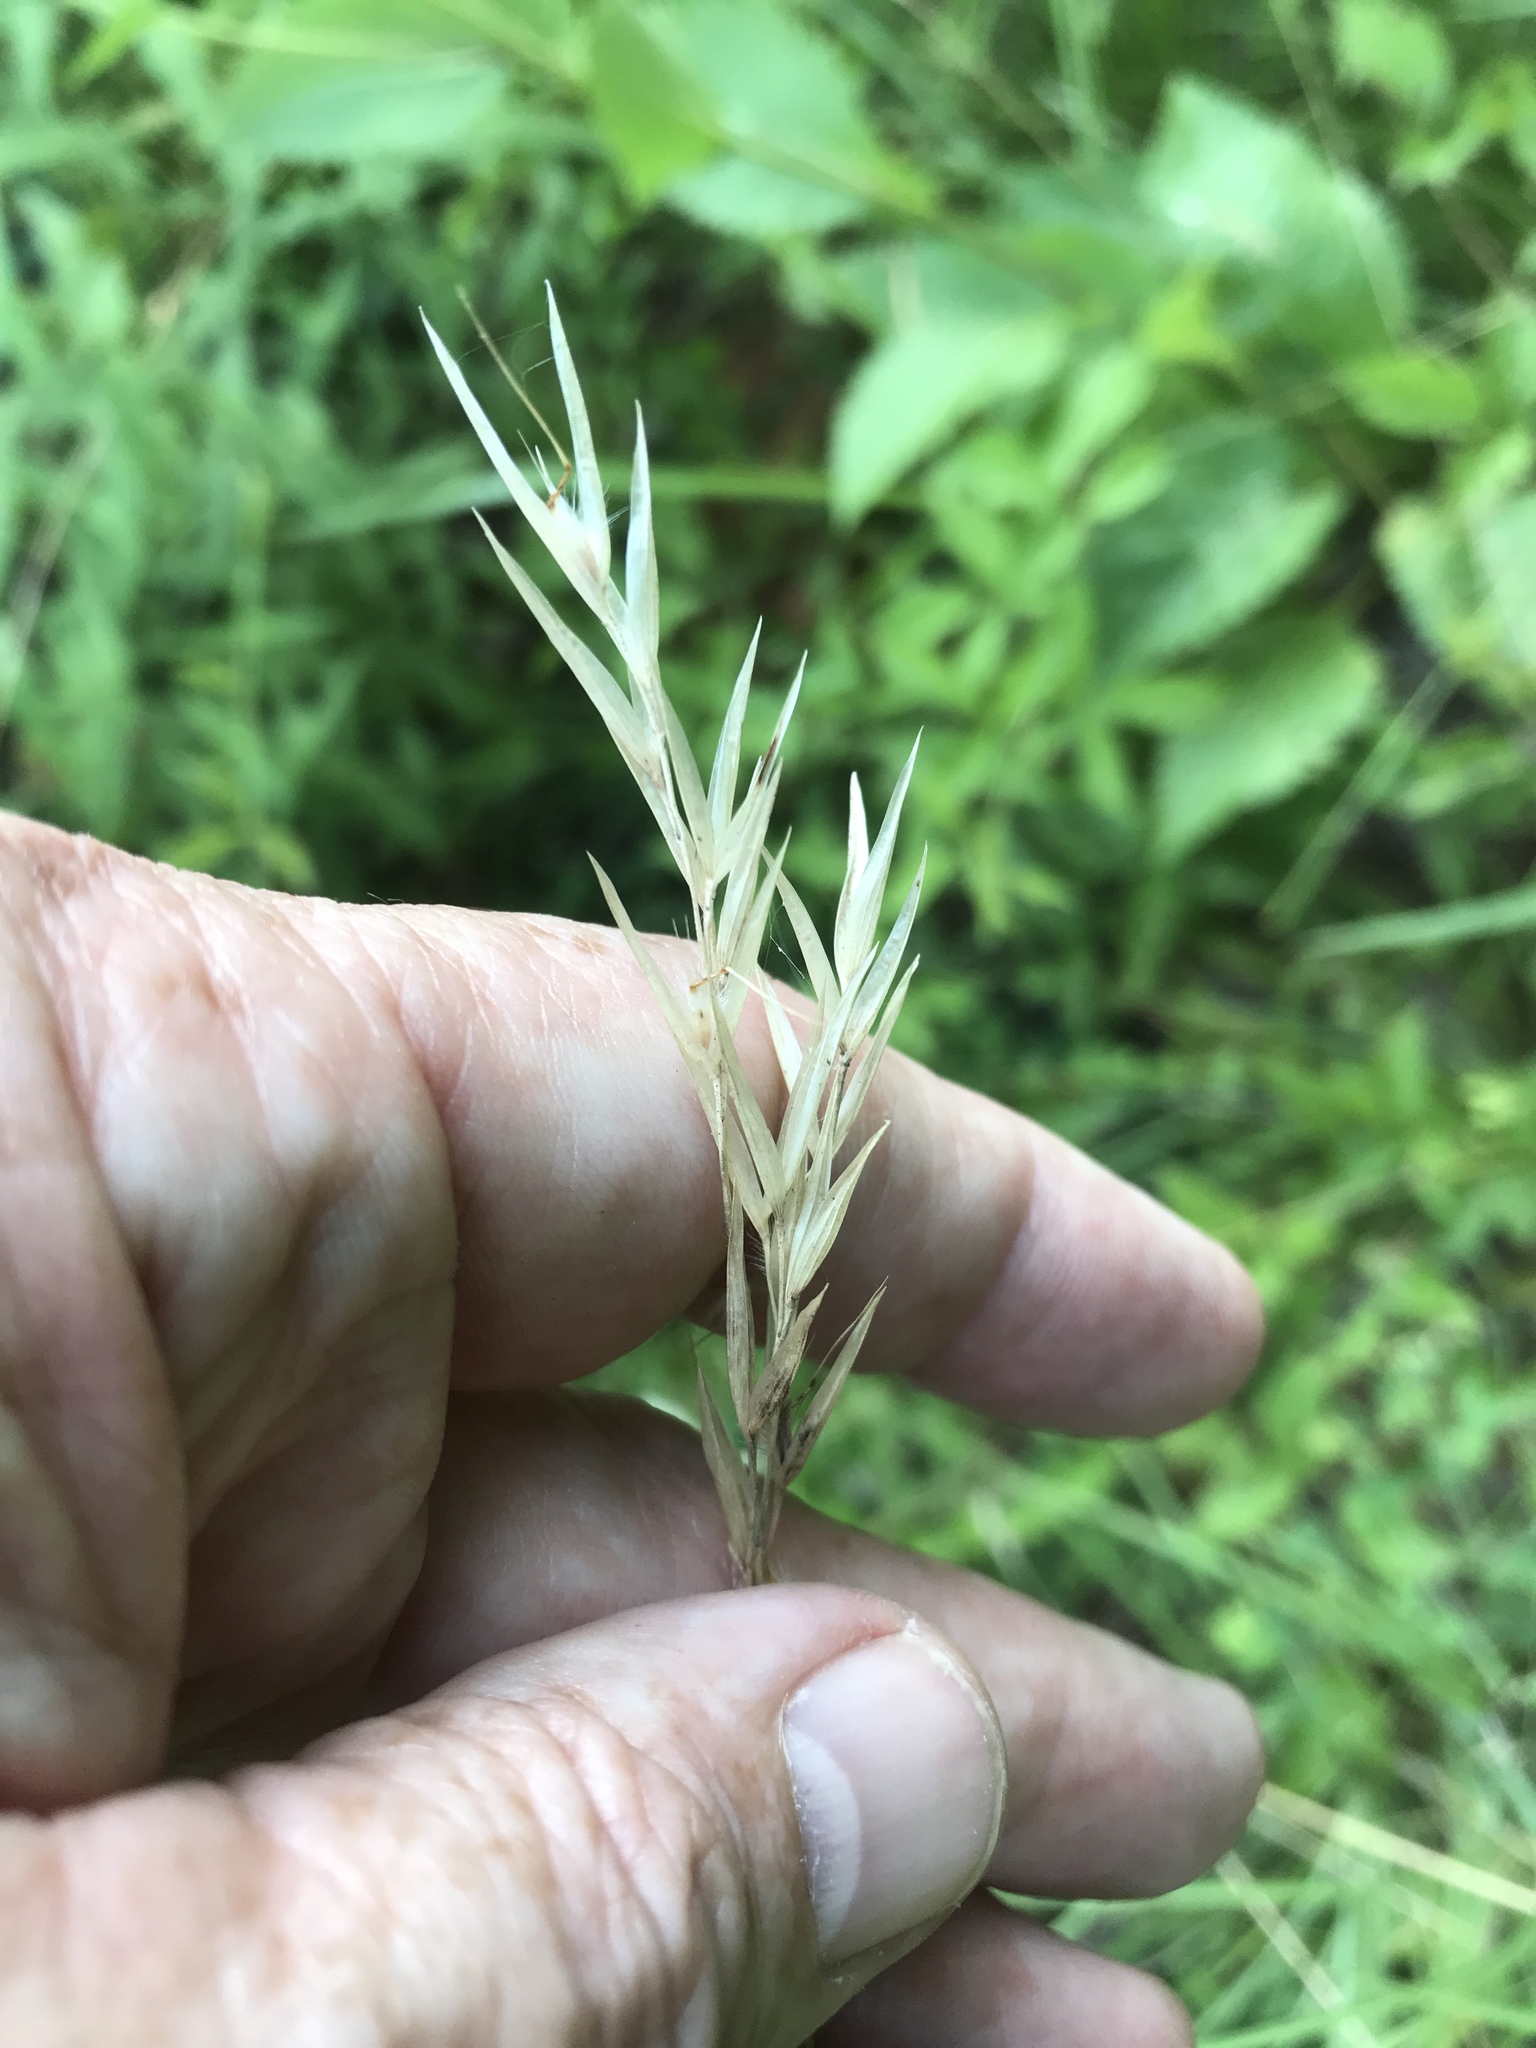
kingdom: Plantae
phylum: Tracheophyta
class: Liliopsida
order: Poales
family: Poaceae
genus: Danthonia
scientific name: Danthonia sericea
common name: Downy danthonia
